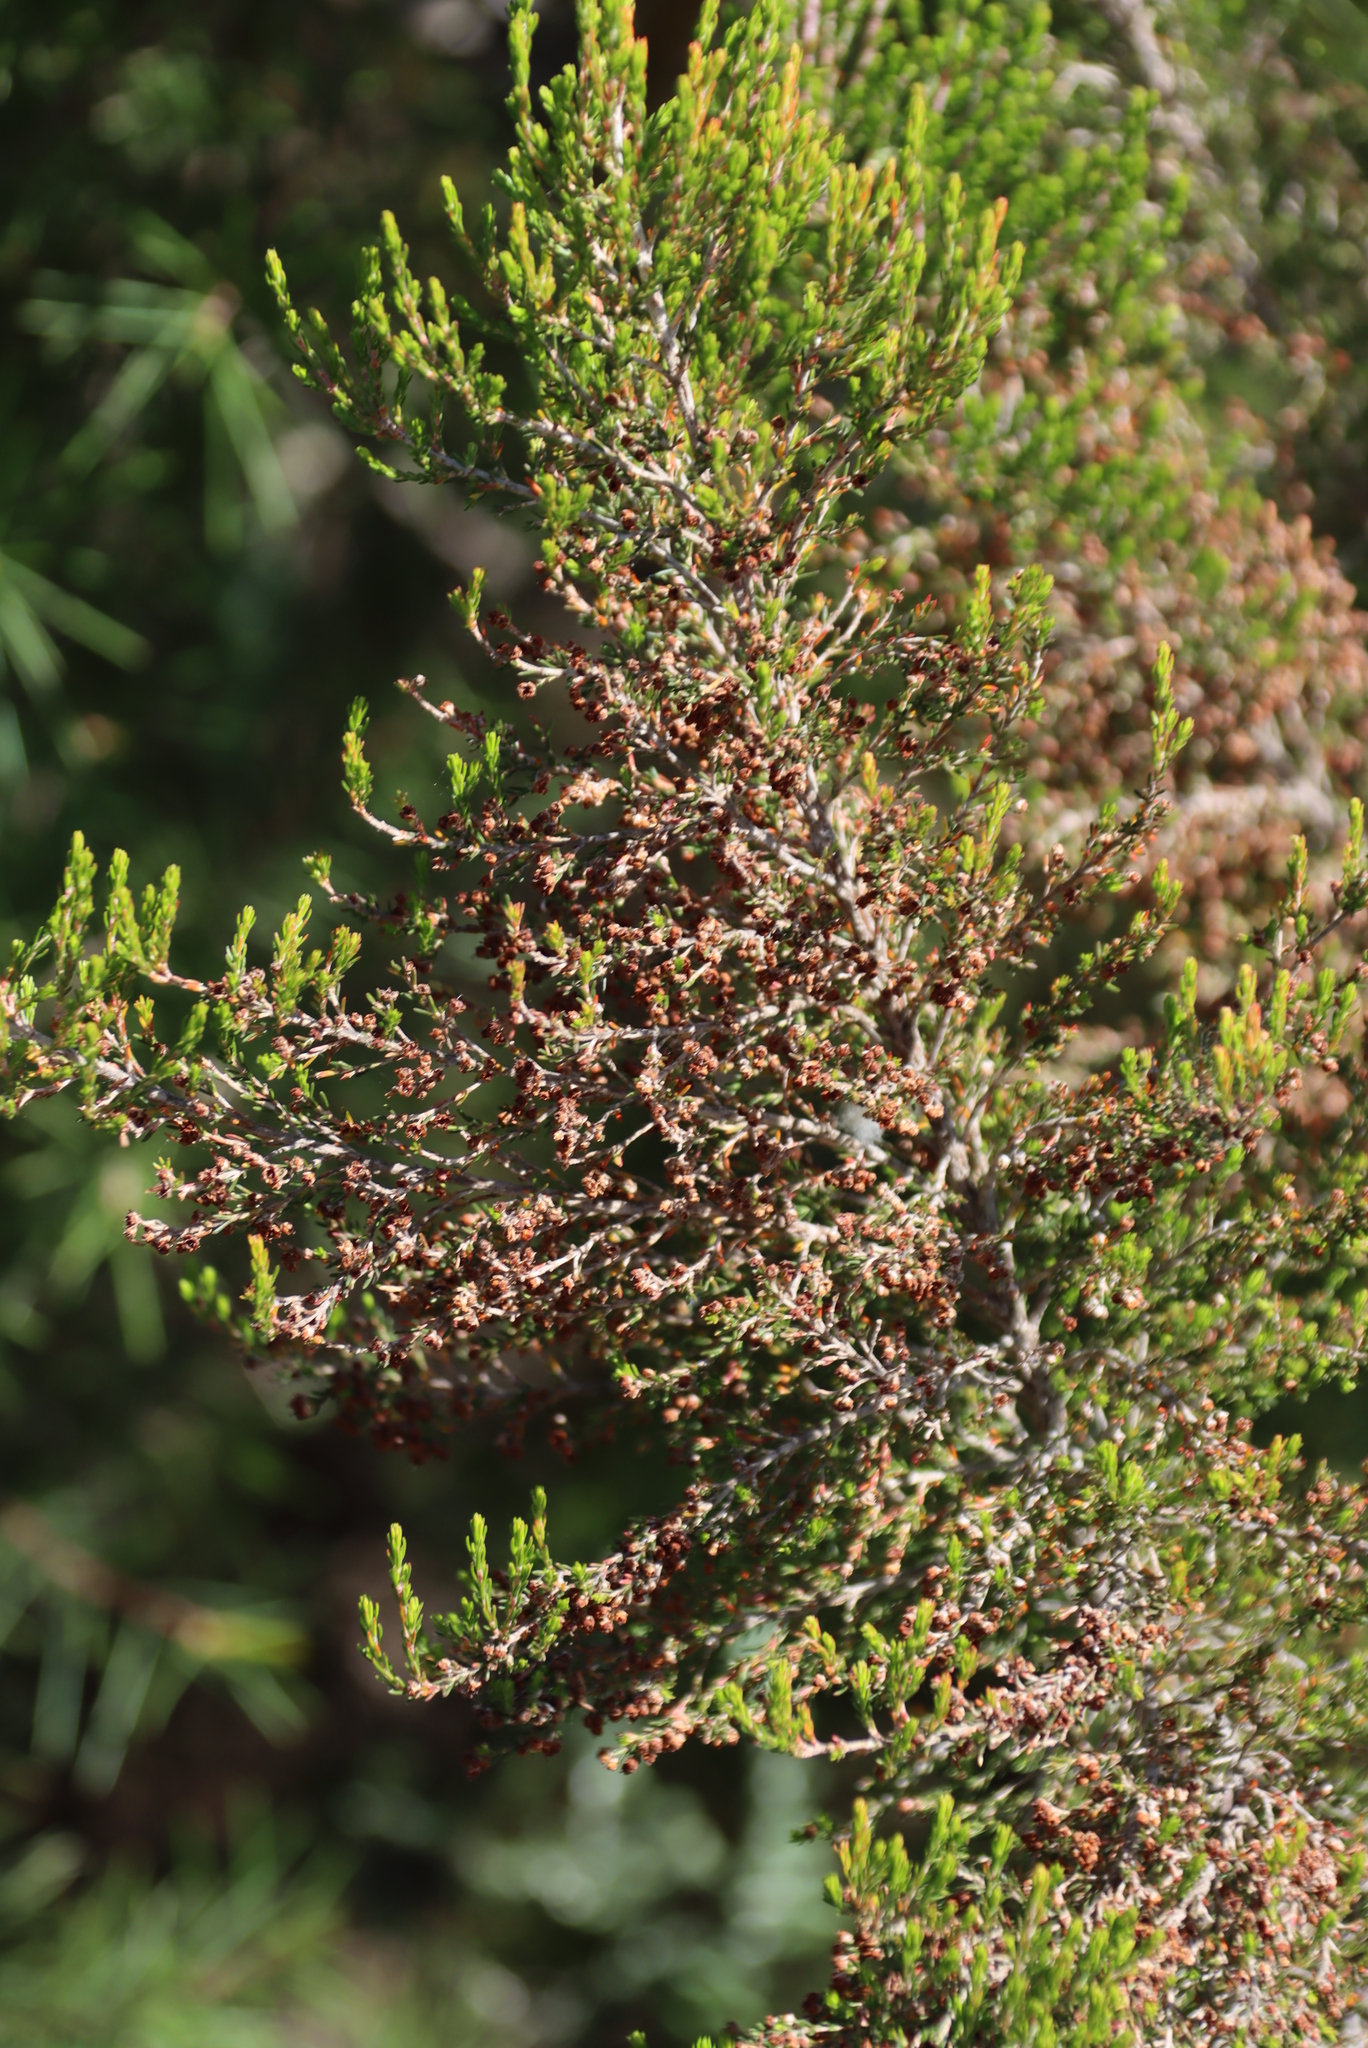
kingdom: Plantae
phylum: Tracheophyta
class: Magnoliopsida
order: Ericales
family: Ericaceae
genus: Erica
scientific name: Erica peltata
